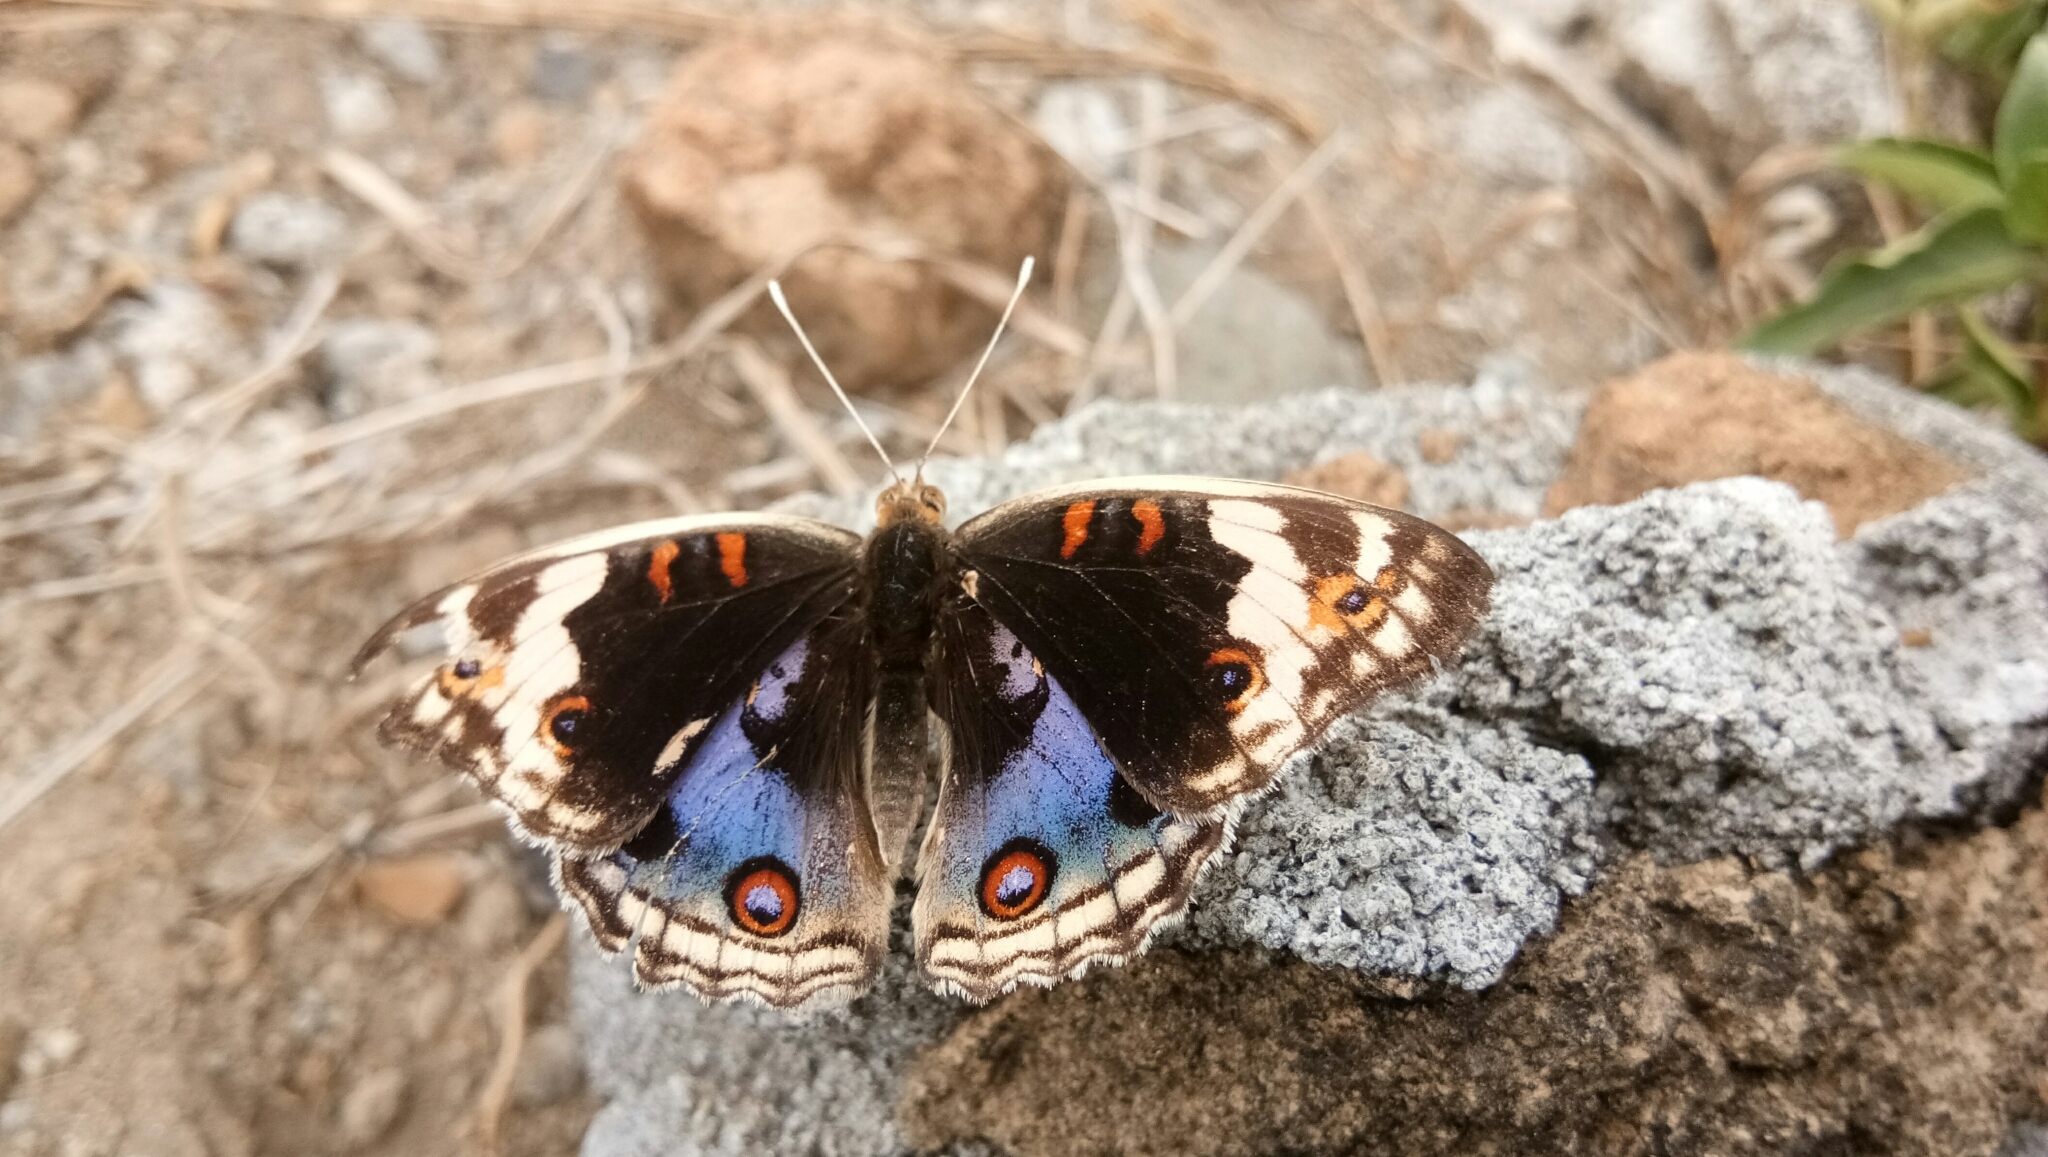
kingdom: Animalia
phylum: Arthropoda
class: Insecta
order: Lepidoptera
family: Nymphalidae
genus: Junonia
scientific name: Junonia orithya
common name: Blue pansy
